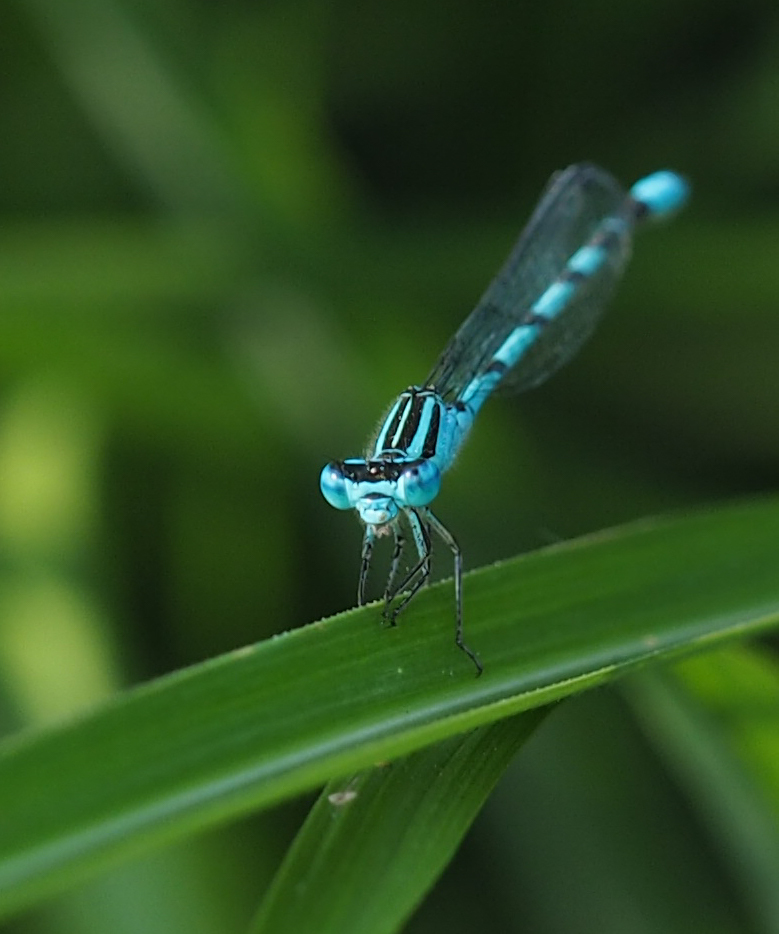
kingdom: Animalia
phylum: Arthropoda
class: Insecta
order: Odonata
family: Coenagrionidae
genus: Enallagma
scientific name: Enallagma durum
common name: Big bluet
